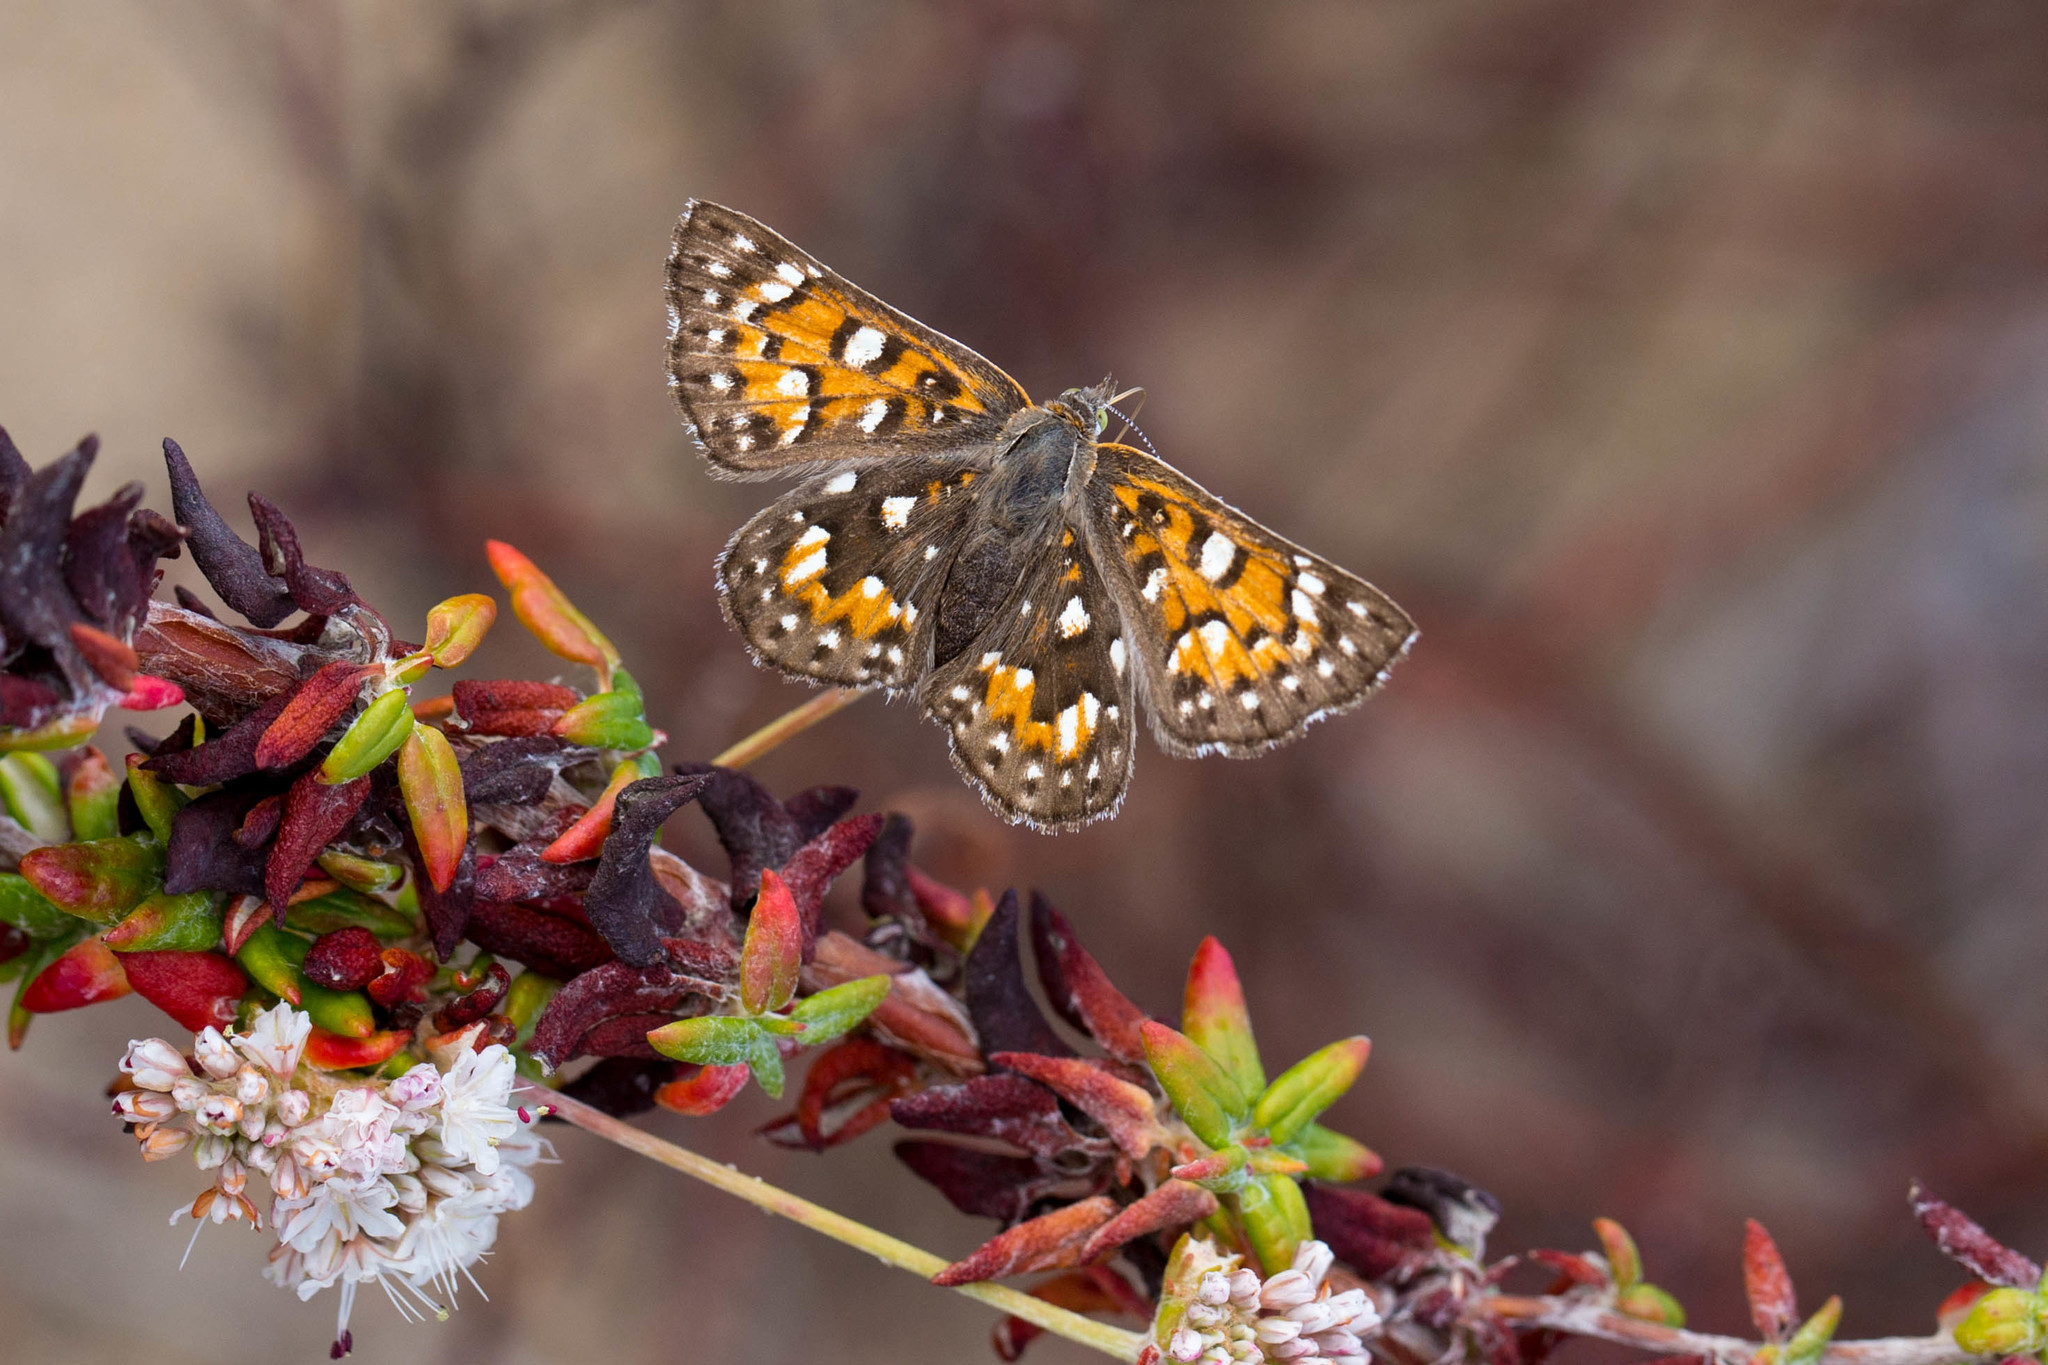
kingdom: Animalia
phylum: Arthropoda
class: Insecta
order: Lepidoptera
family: Riodinidae
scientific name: Riodinidae
